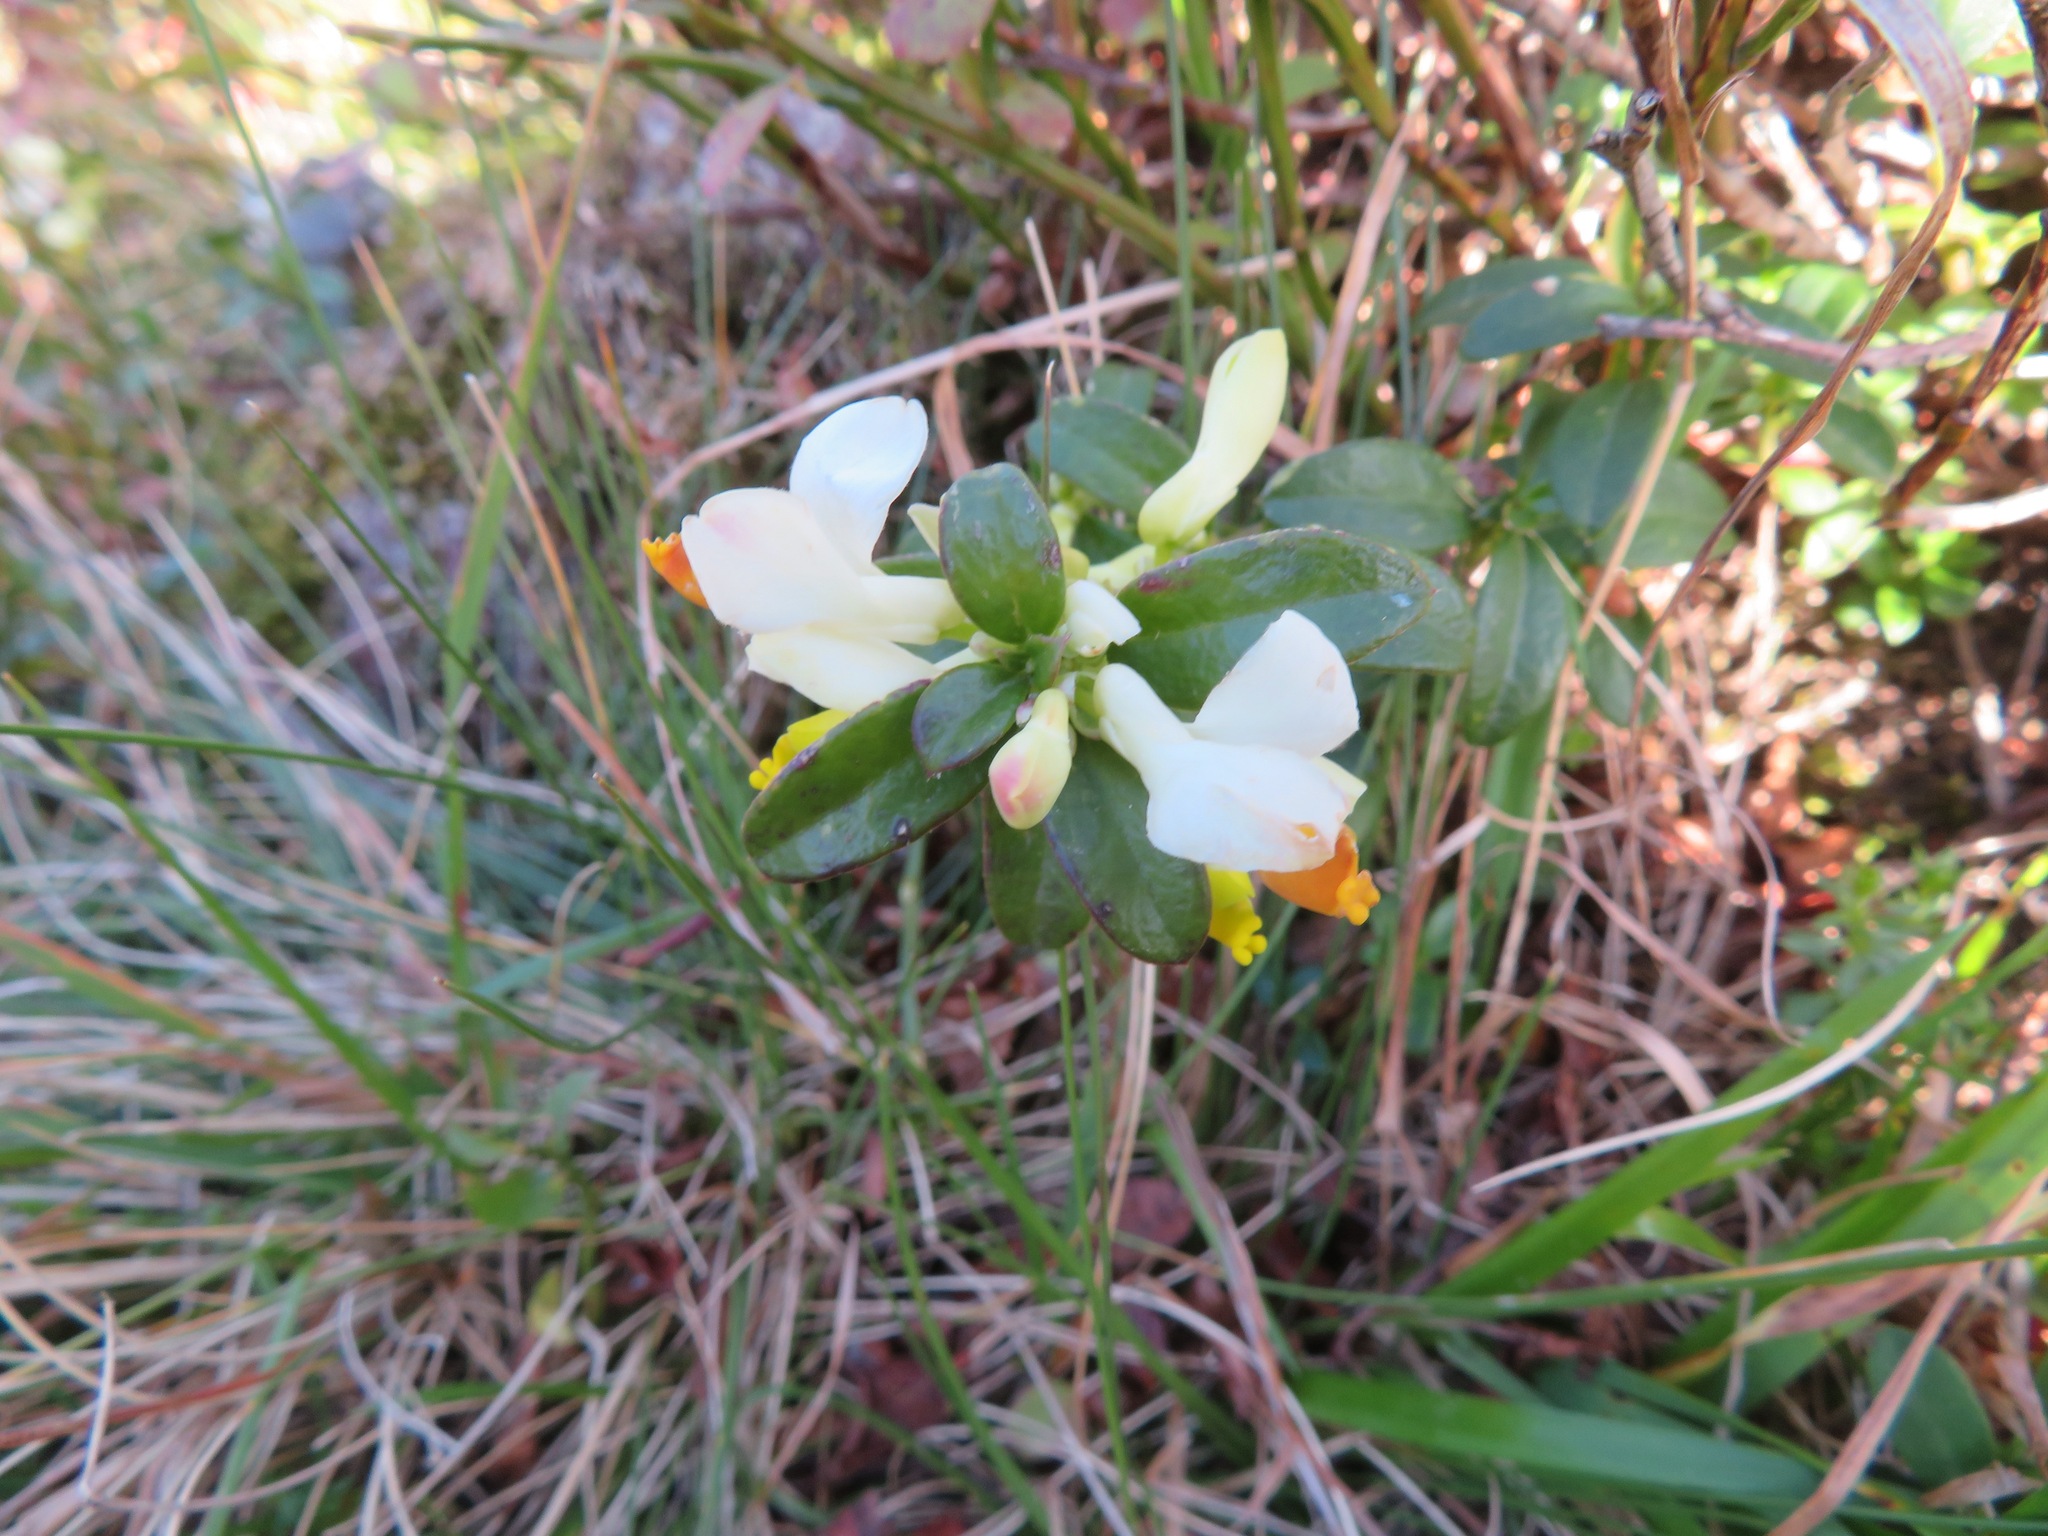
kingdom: Plantae
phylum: Tracheophyta
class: Magnoliopsida
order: Fabales
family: Polygalaceae
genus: Polygaloides
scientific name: Polygaloides chamaebuxus
